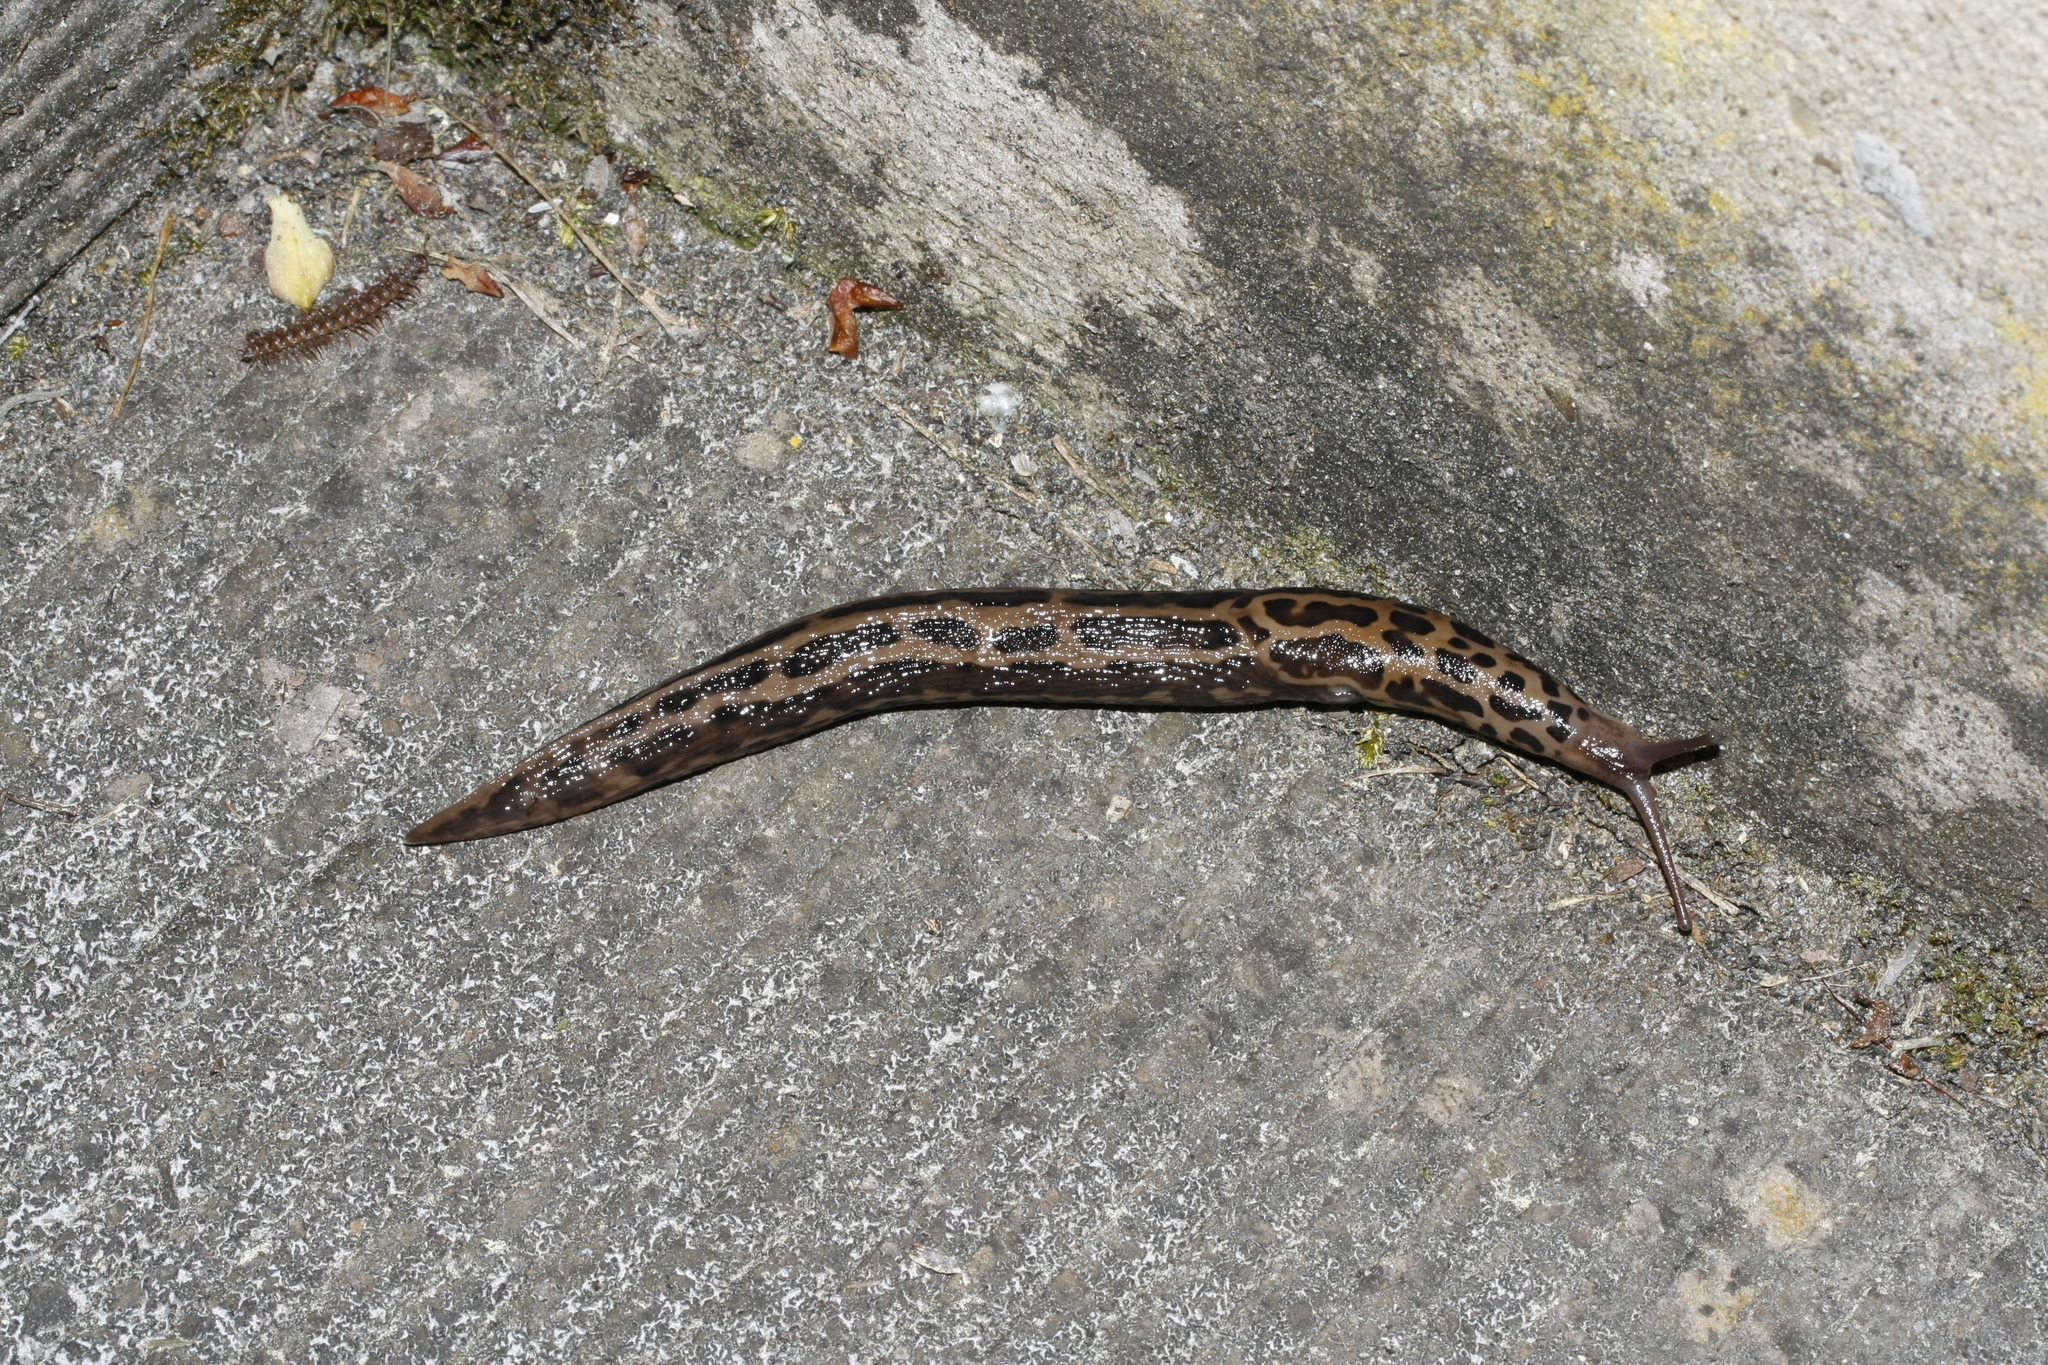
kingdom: Animalia
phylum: Mollusca
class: Gastropoda
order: Stylommatophora
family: Limacidae
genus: Limax
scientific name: Limax maximus
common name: Great grey slug
